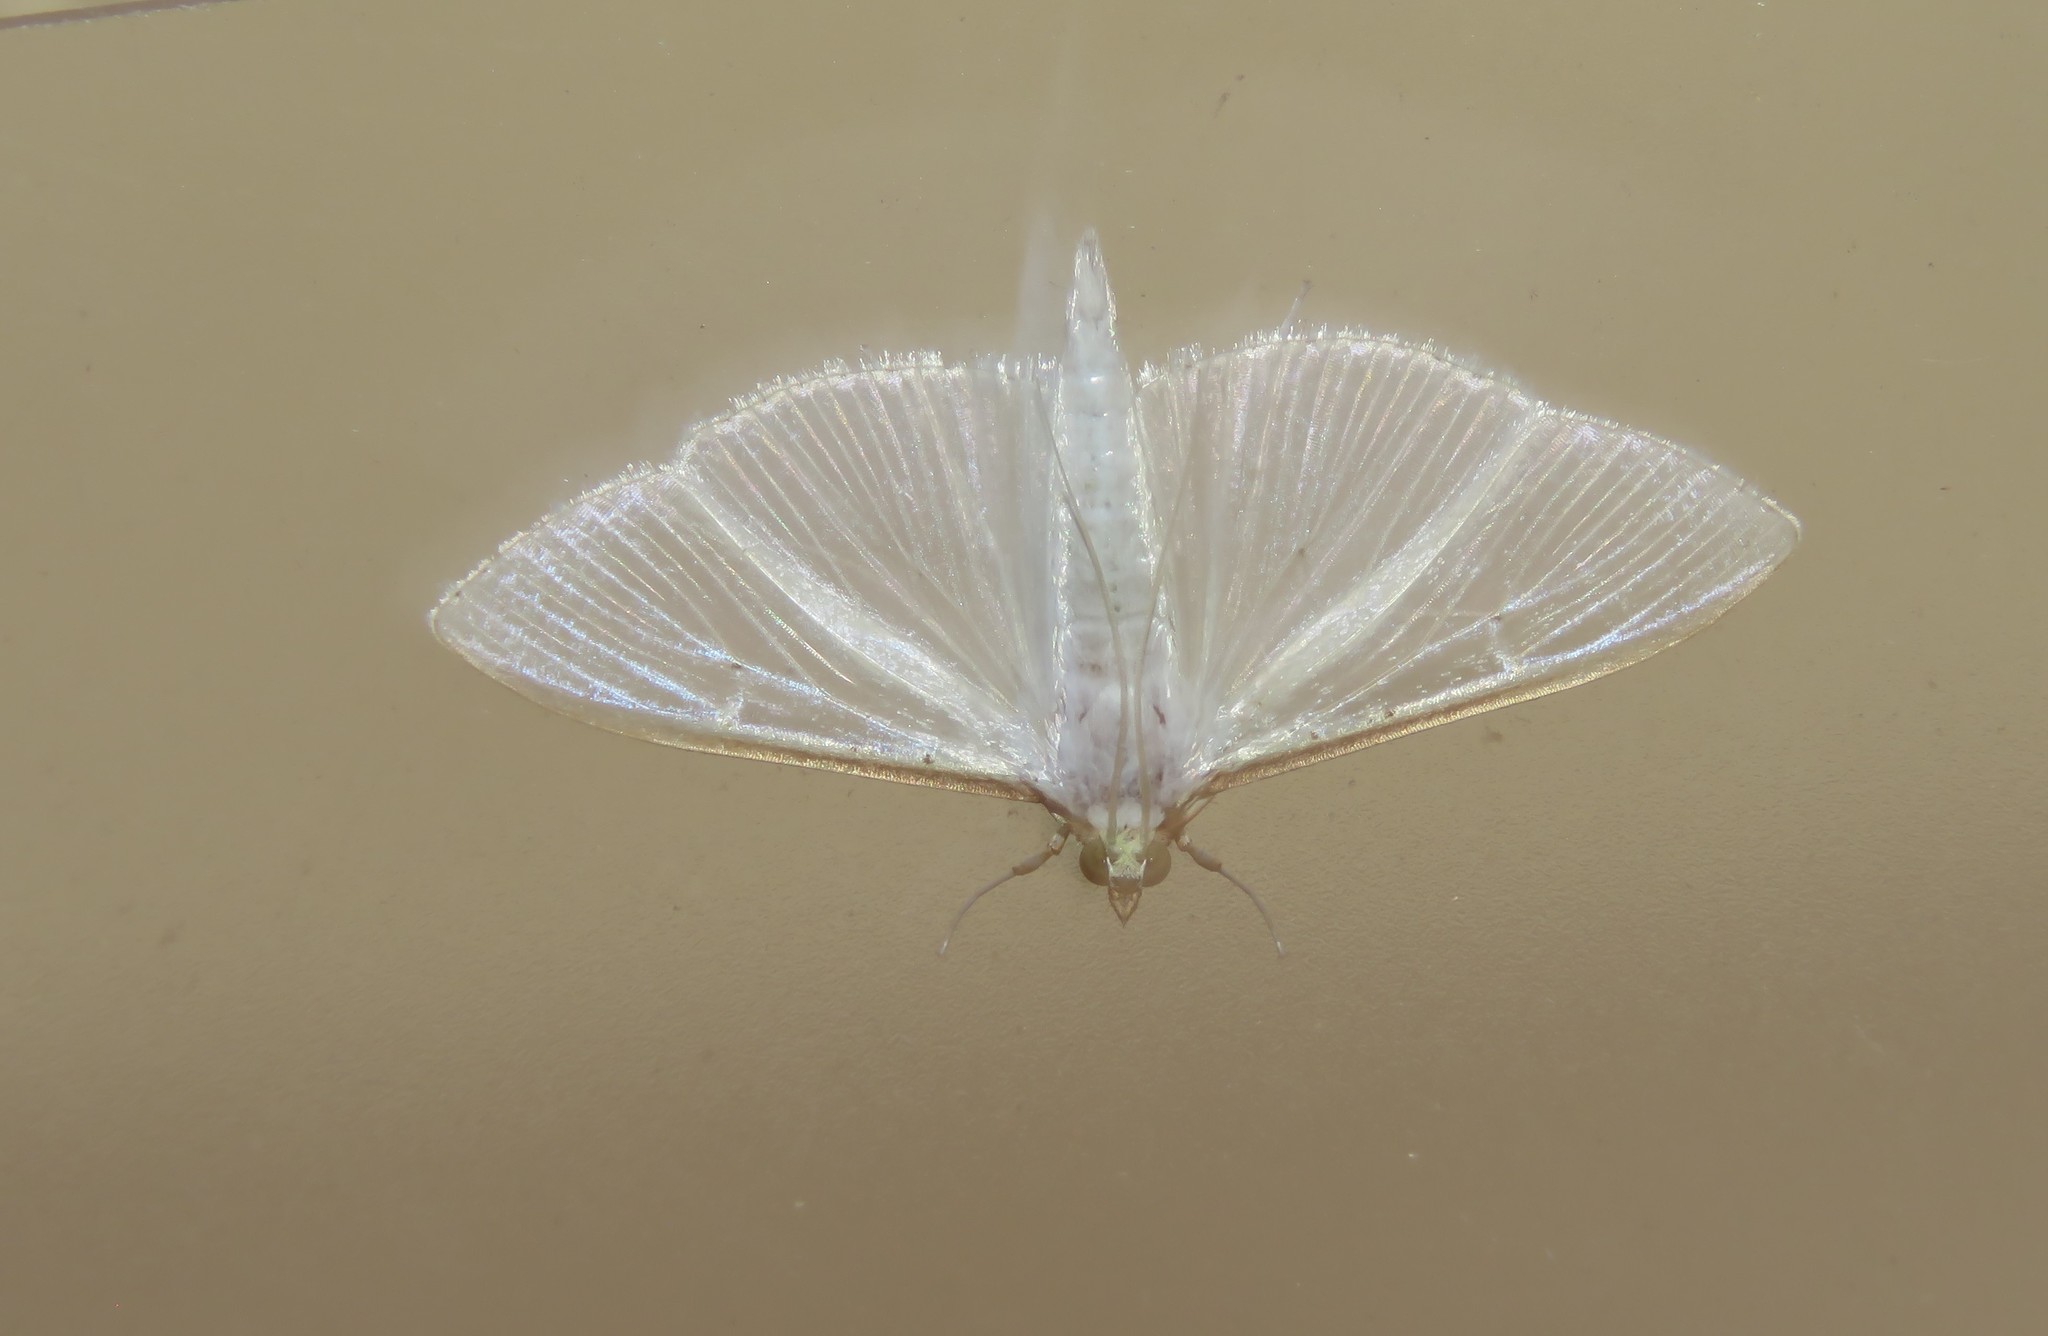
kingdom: Animalia
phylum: Arthropoda
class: Insecta
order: Lepidoptera
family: Crambidae
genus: Palpita
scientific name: Palpita vitrealis
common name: Olive-tree pearl
